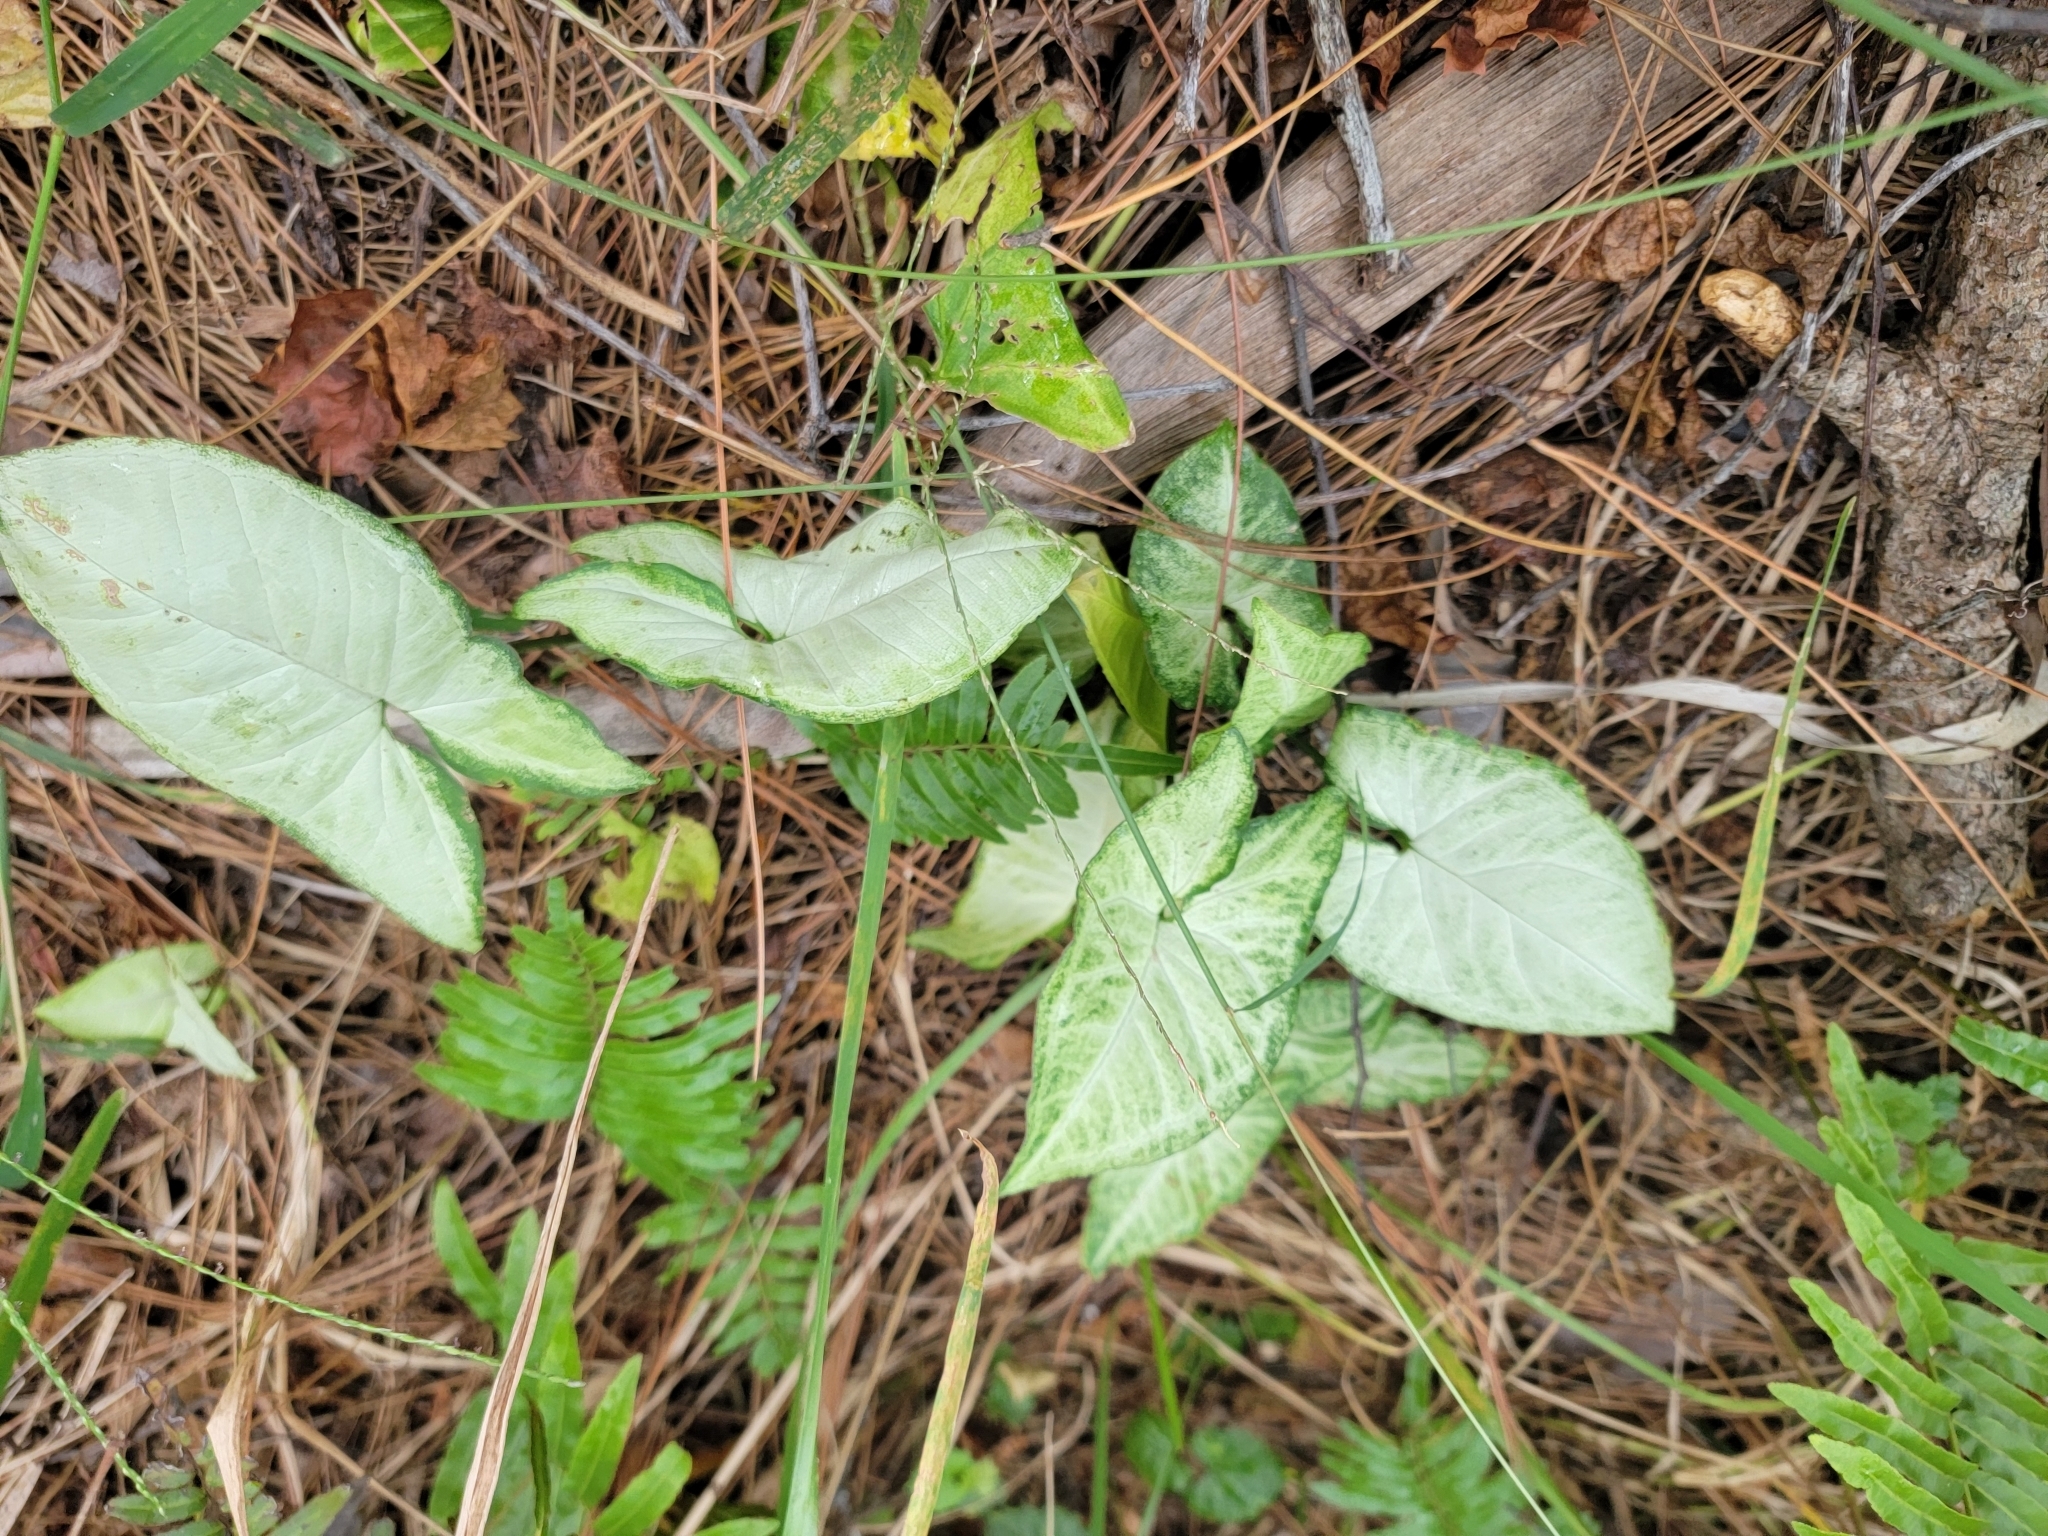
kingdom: Plantae
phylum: Tracheophyta
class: Liliopsida
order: Alismatales
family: Araceae
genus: Syngonium
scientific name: Syngonium podophyllum
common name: American evergreen
